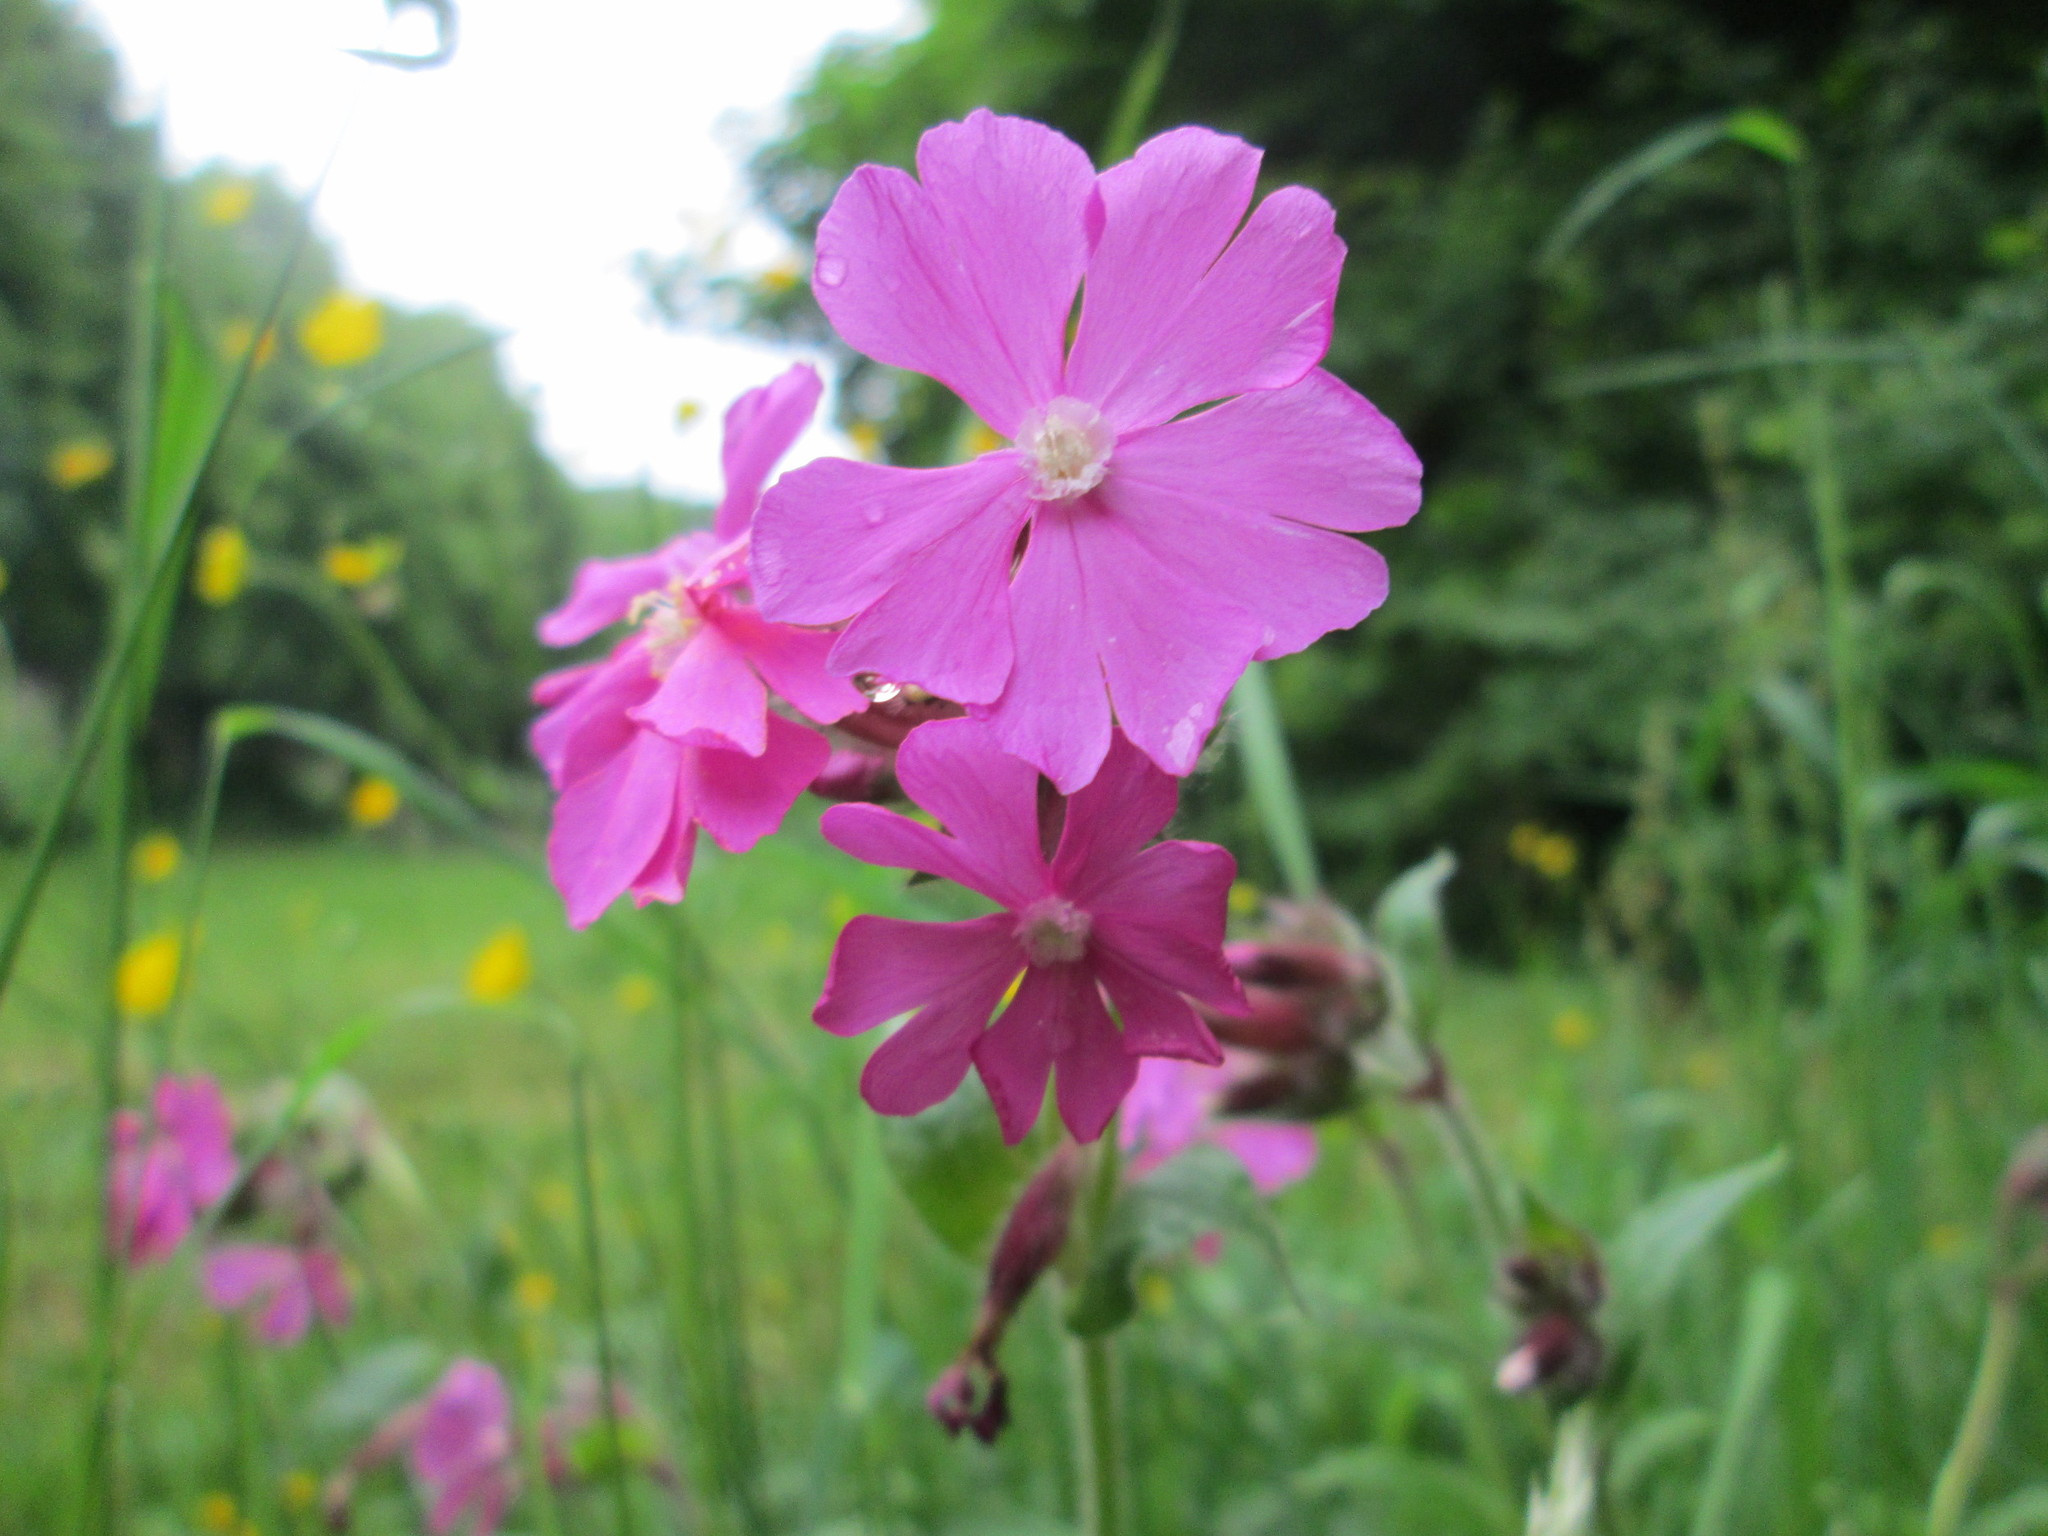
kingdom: Plantae
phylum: Tracheophyta
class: Magnoliopsida
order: Caryophyllales
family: Caryophyllaceae
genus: Silene
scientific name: Silene dioica
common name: Red campion
